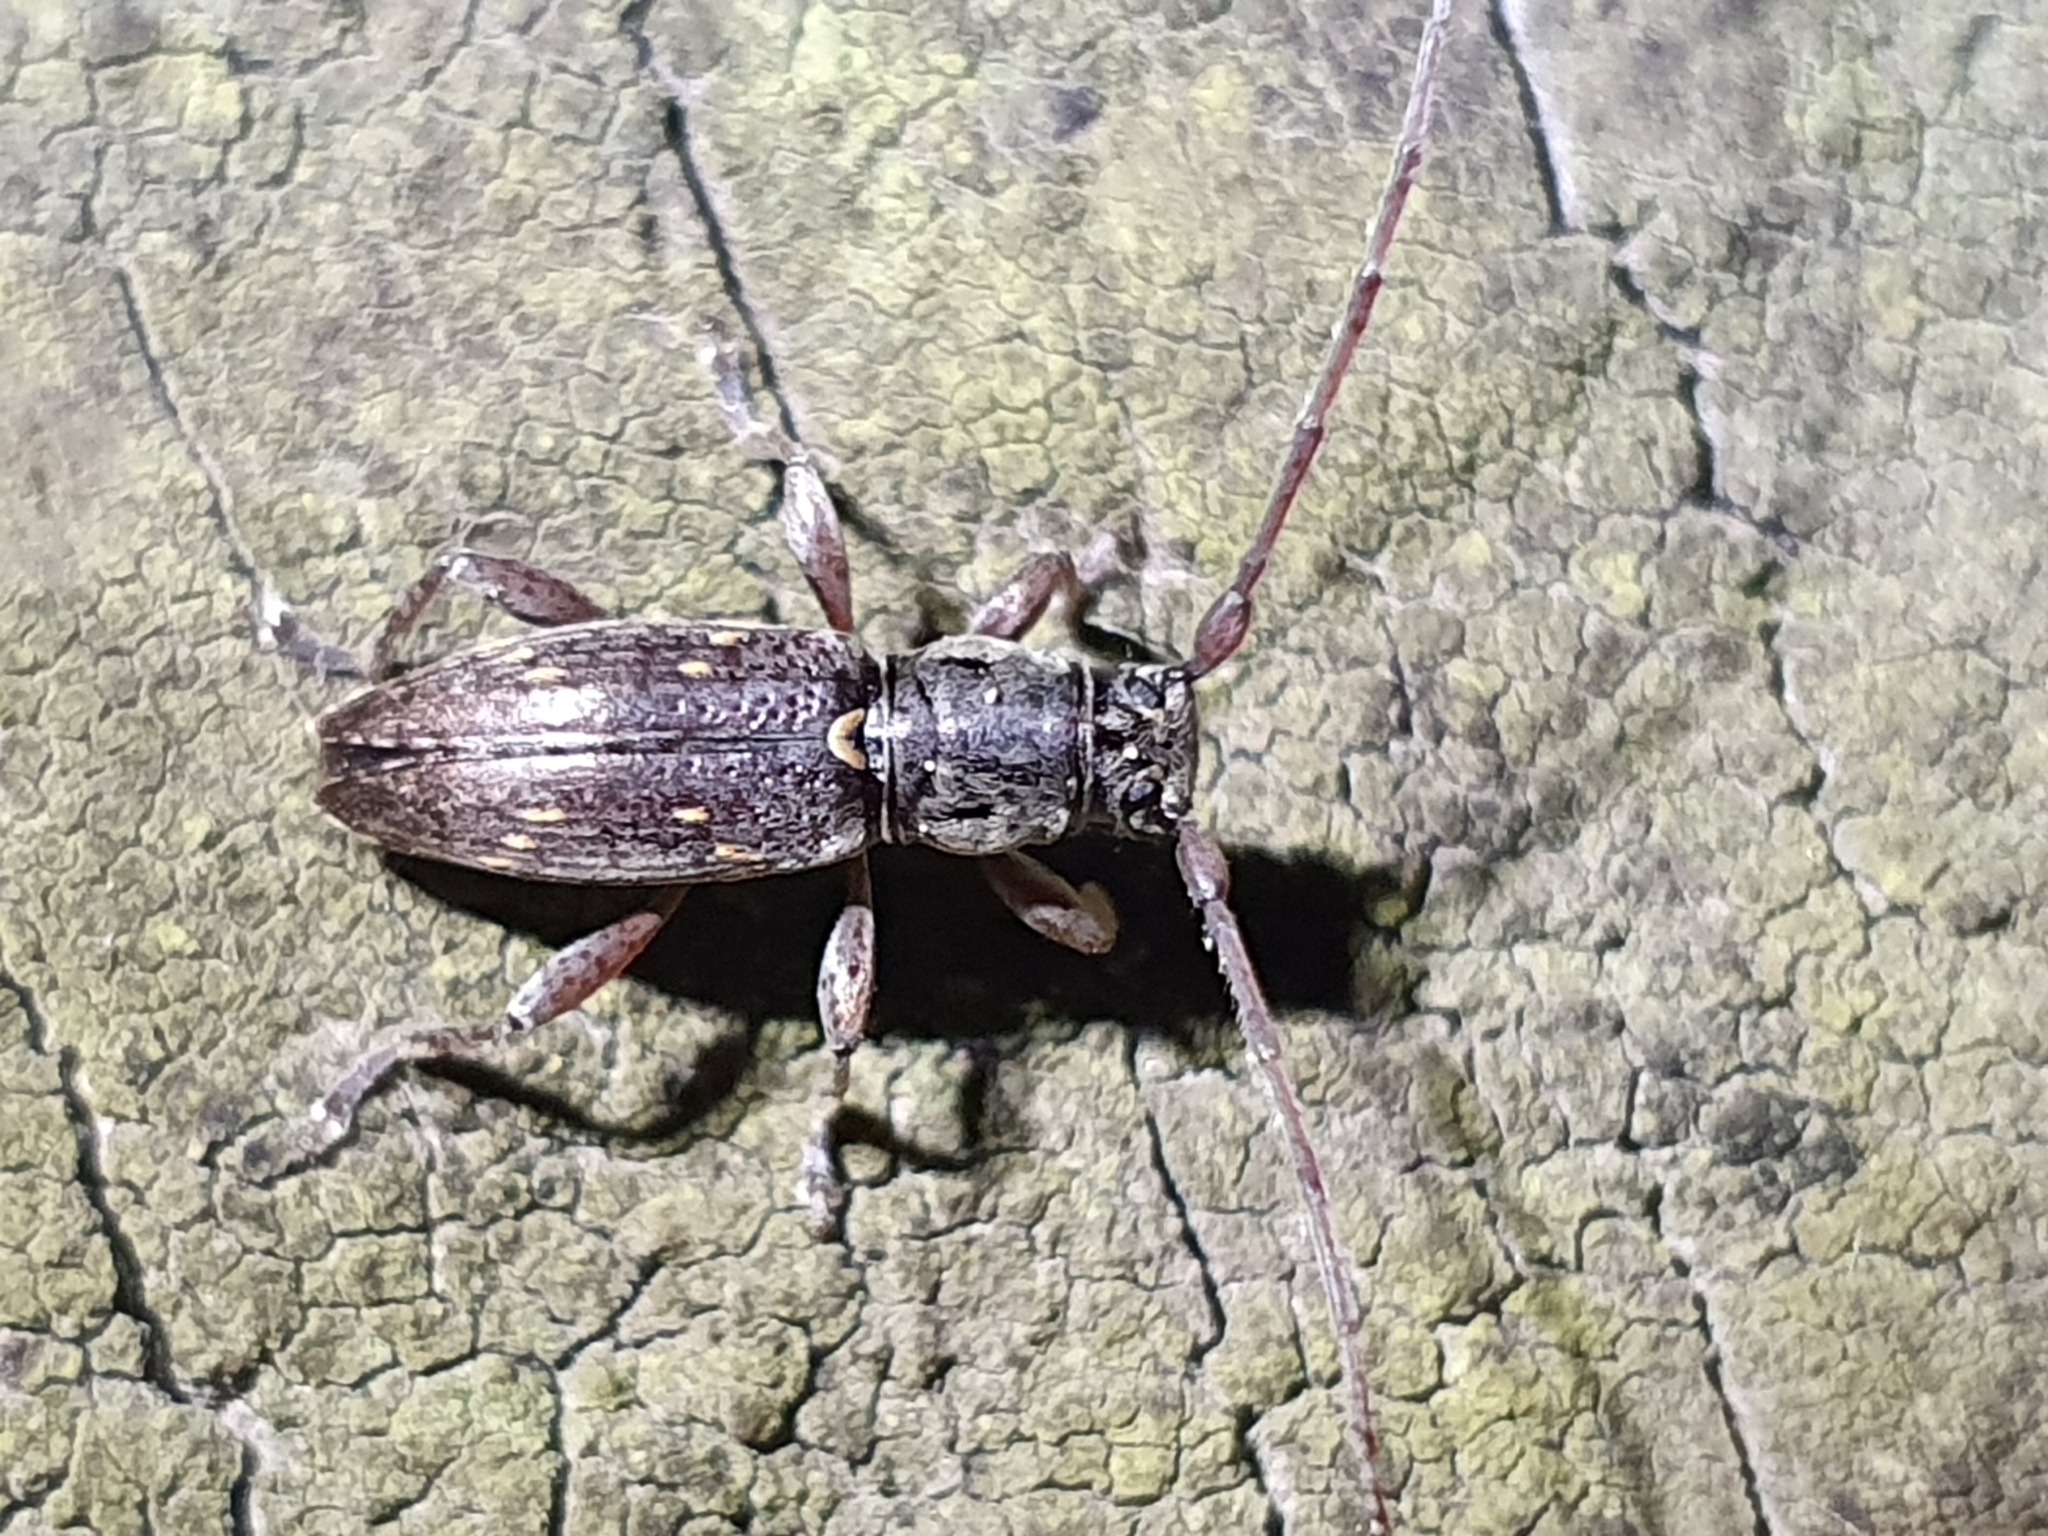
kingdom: Animalia
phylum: Arthropoda
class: Insecta
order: Coleoptera
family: Cerambycidae
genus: Xylotoles
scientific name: Xylotoles griseus
